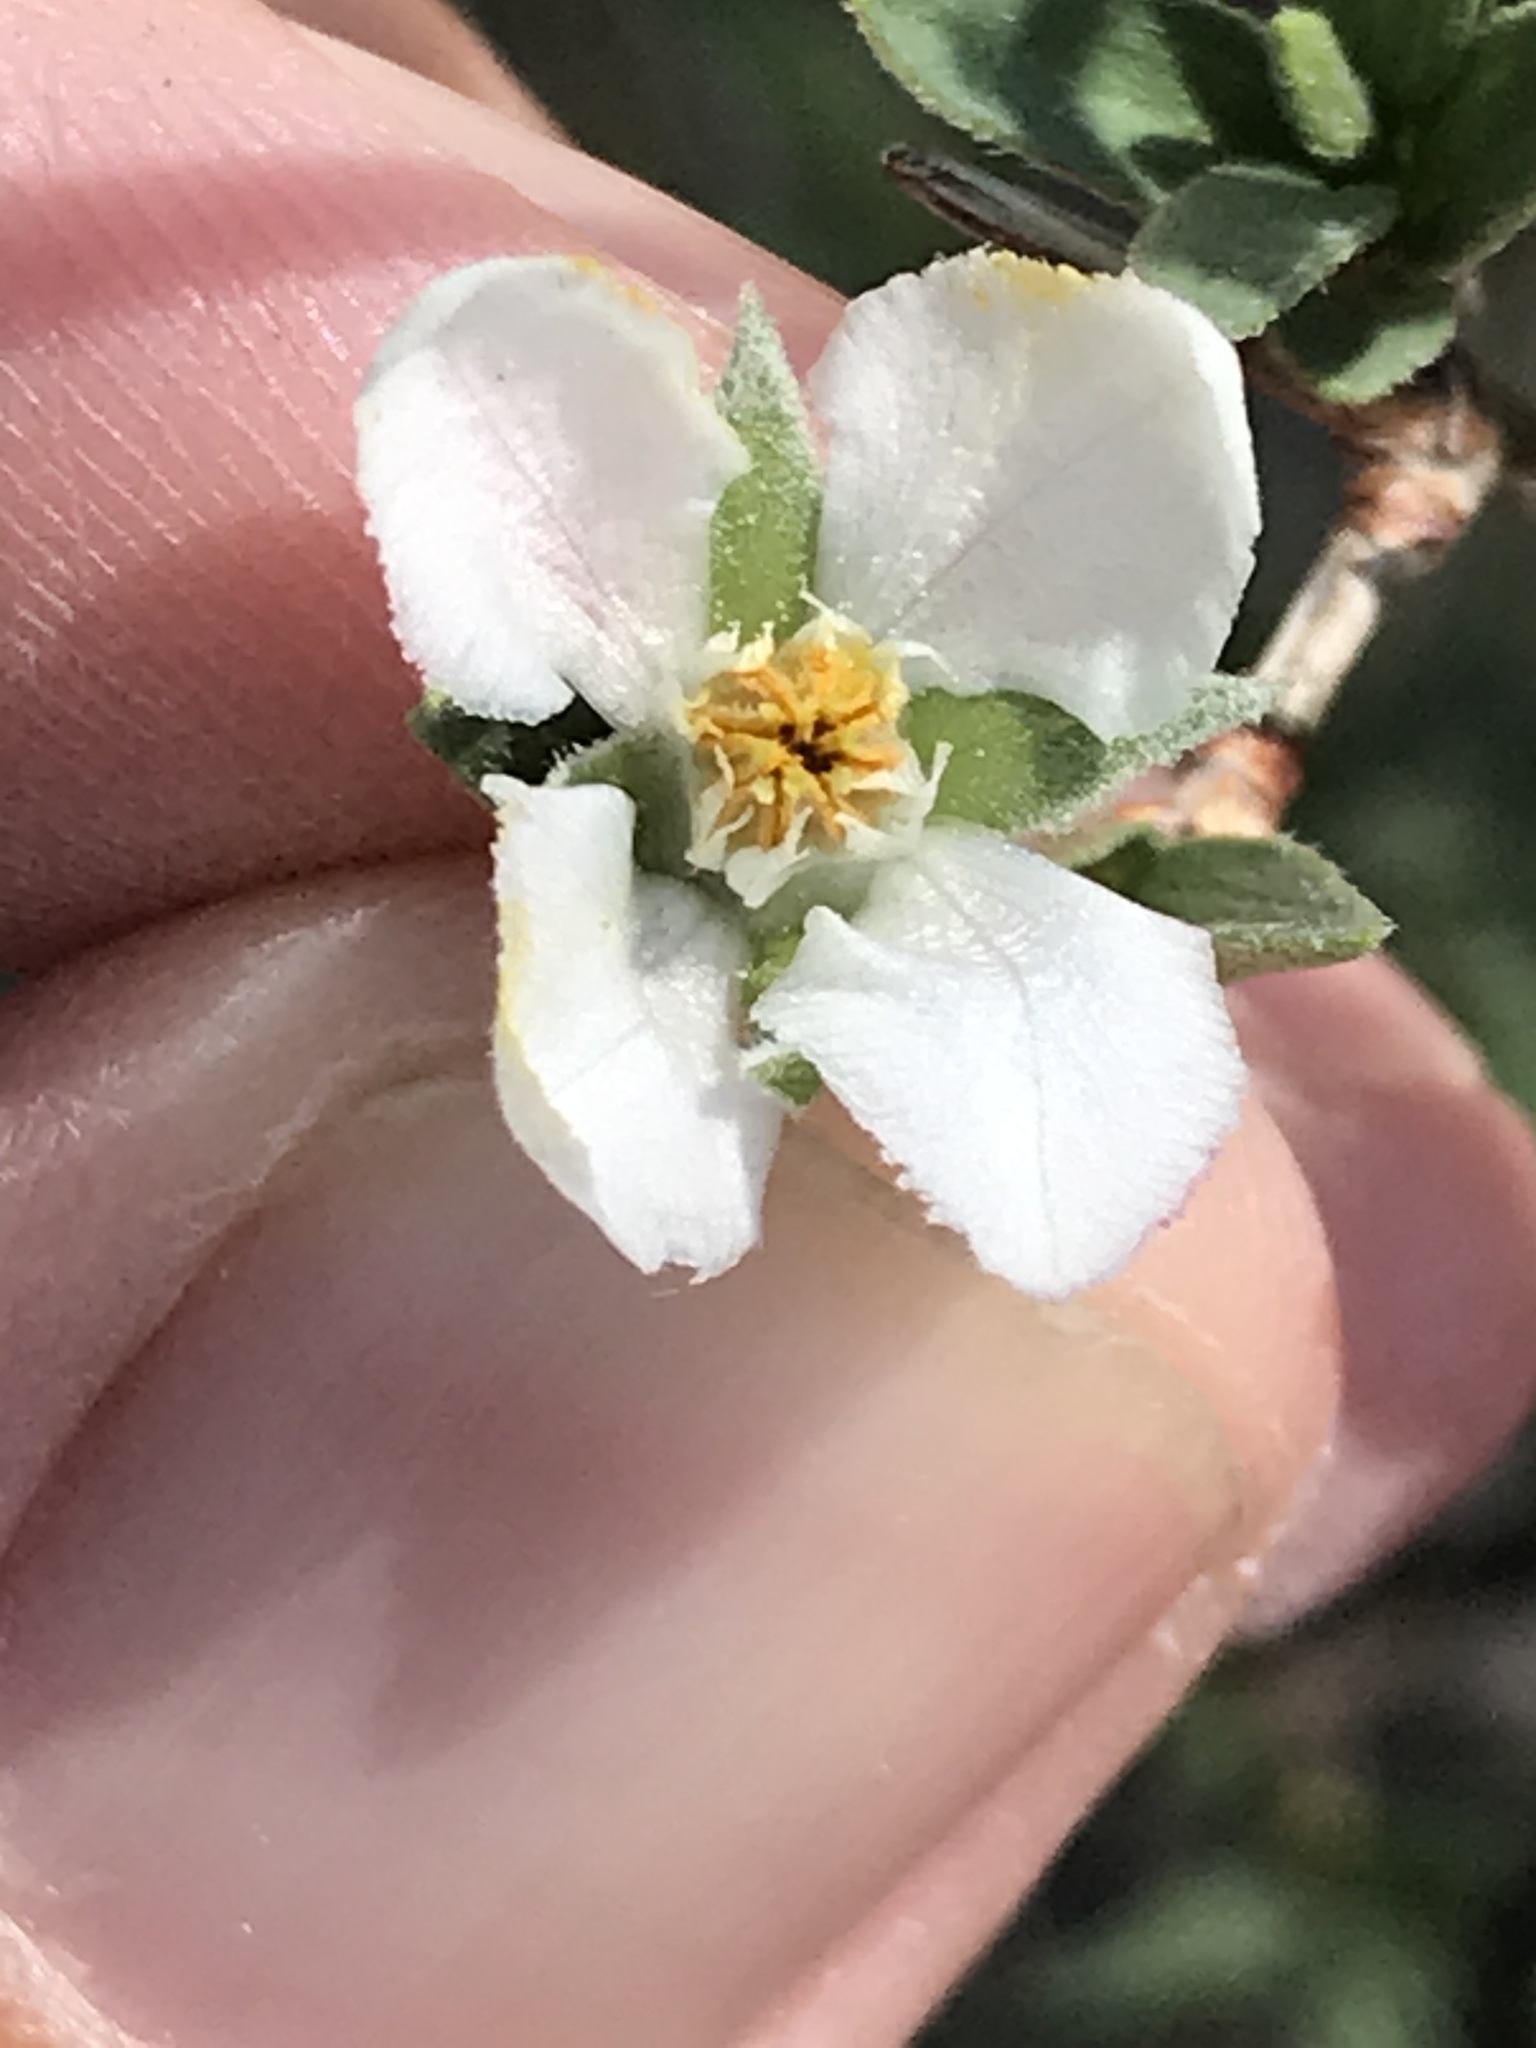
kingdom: Plantae
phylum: Tracheophyta
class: Magnoliopsida
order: Cornales
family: Hydrangeaceae
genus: Fendlera
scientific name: Fendlera rupicola
